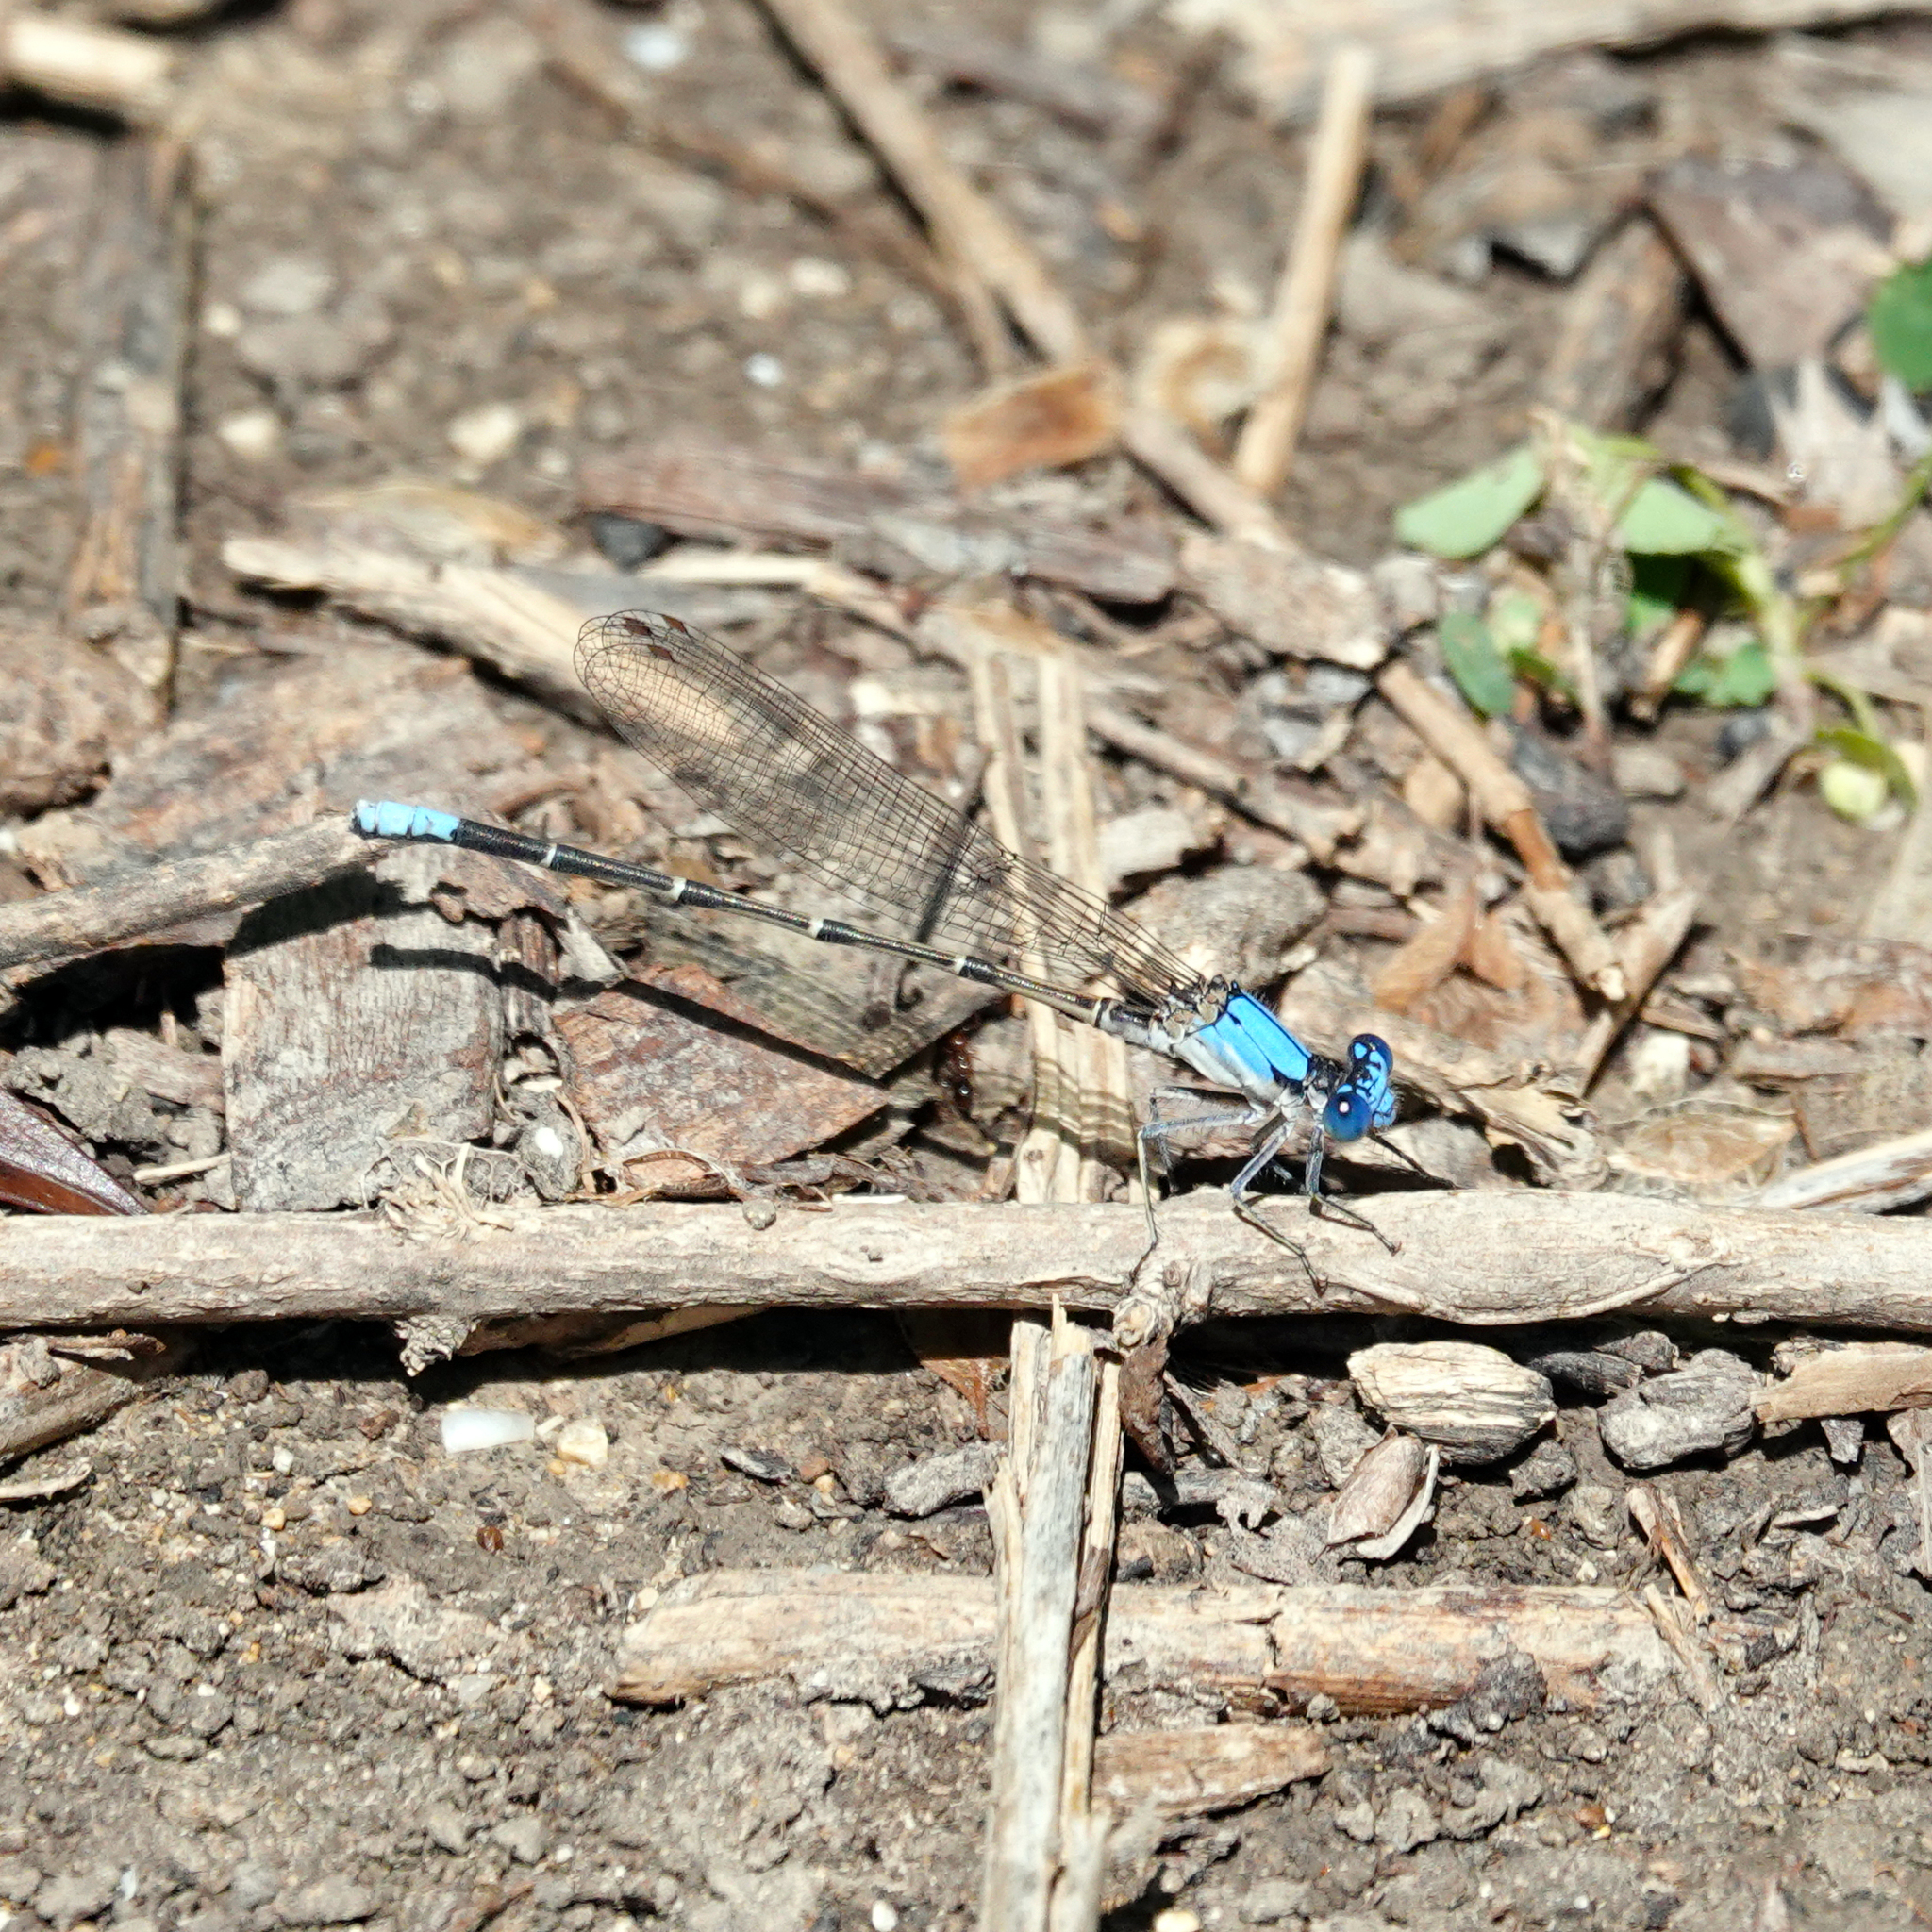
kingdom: Animalia
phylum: Arthropoda
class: Insecta
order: Odonata
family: Coenagrionidae
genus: Argia
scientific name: Argia apicalis
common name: Blue-fronted dancer
